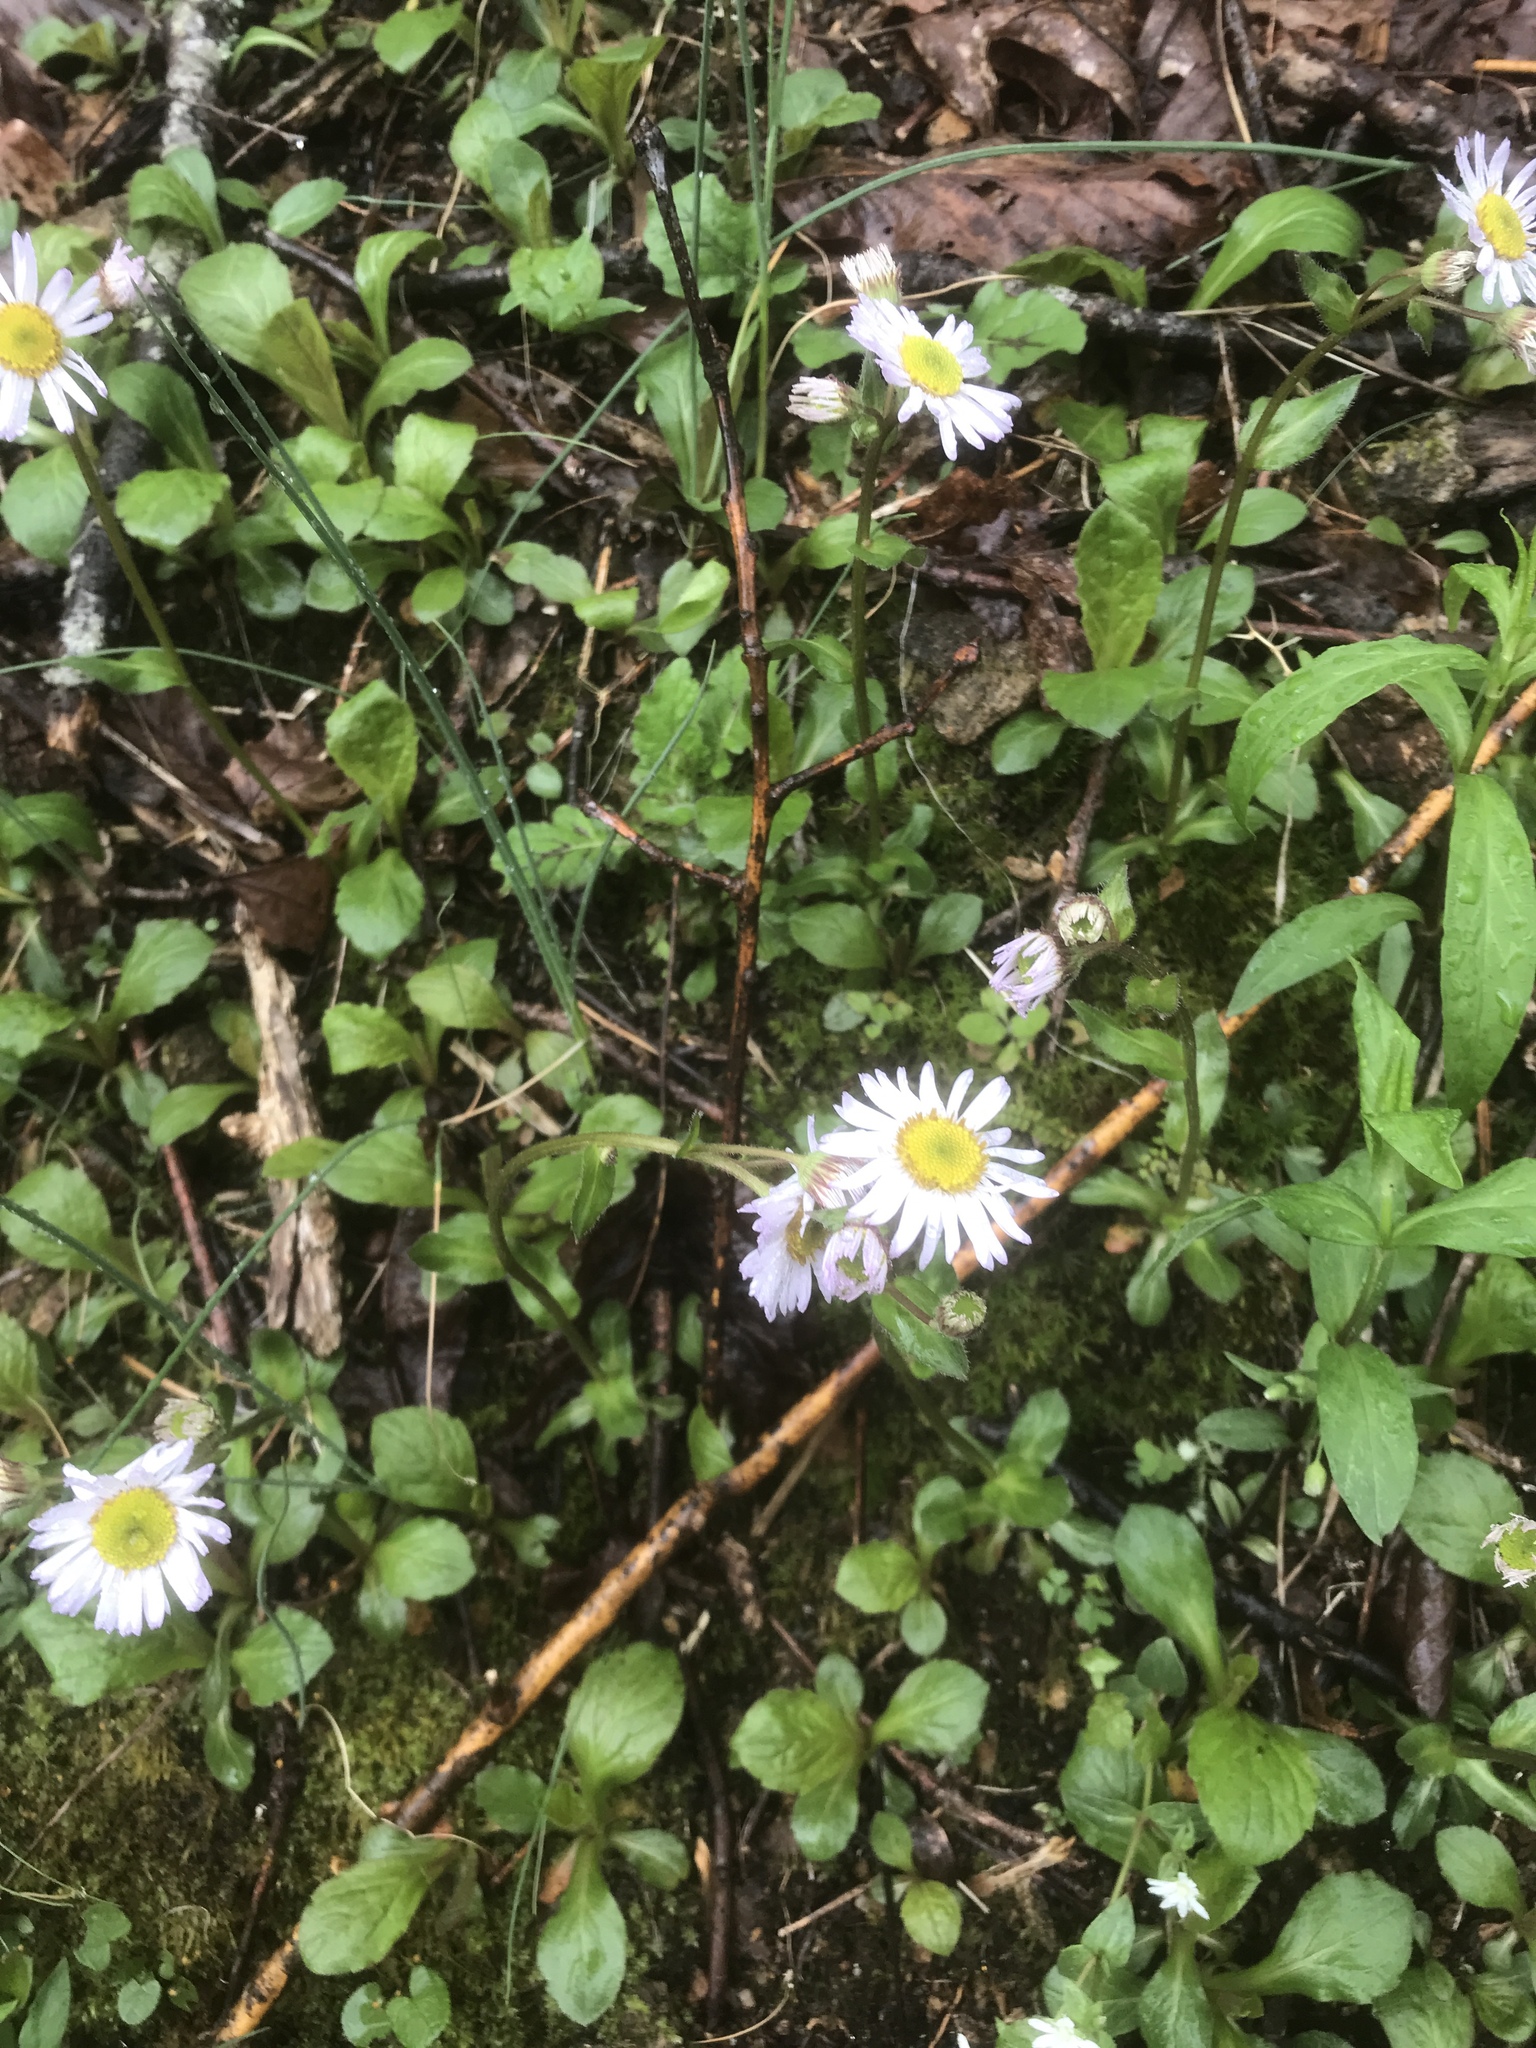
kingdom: Plantae
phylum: Tracheophyta
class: Magnoliopsida
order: Asterales
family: Asteraceae
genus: Erigeron
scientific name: Erigeron pulchellus
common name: Hairy fleabane
